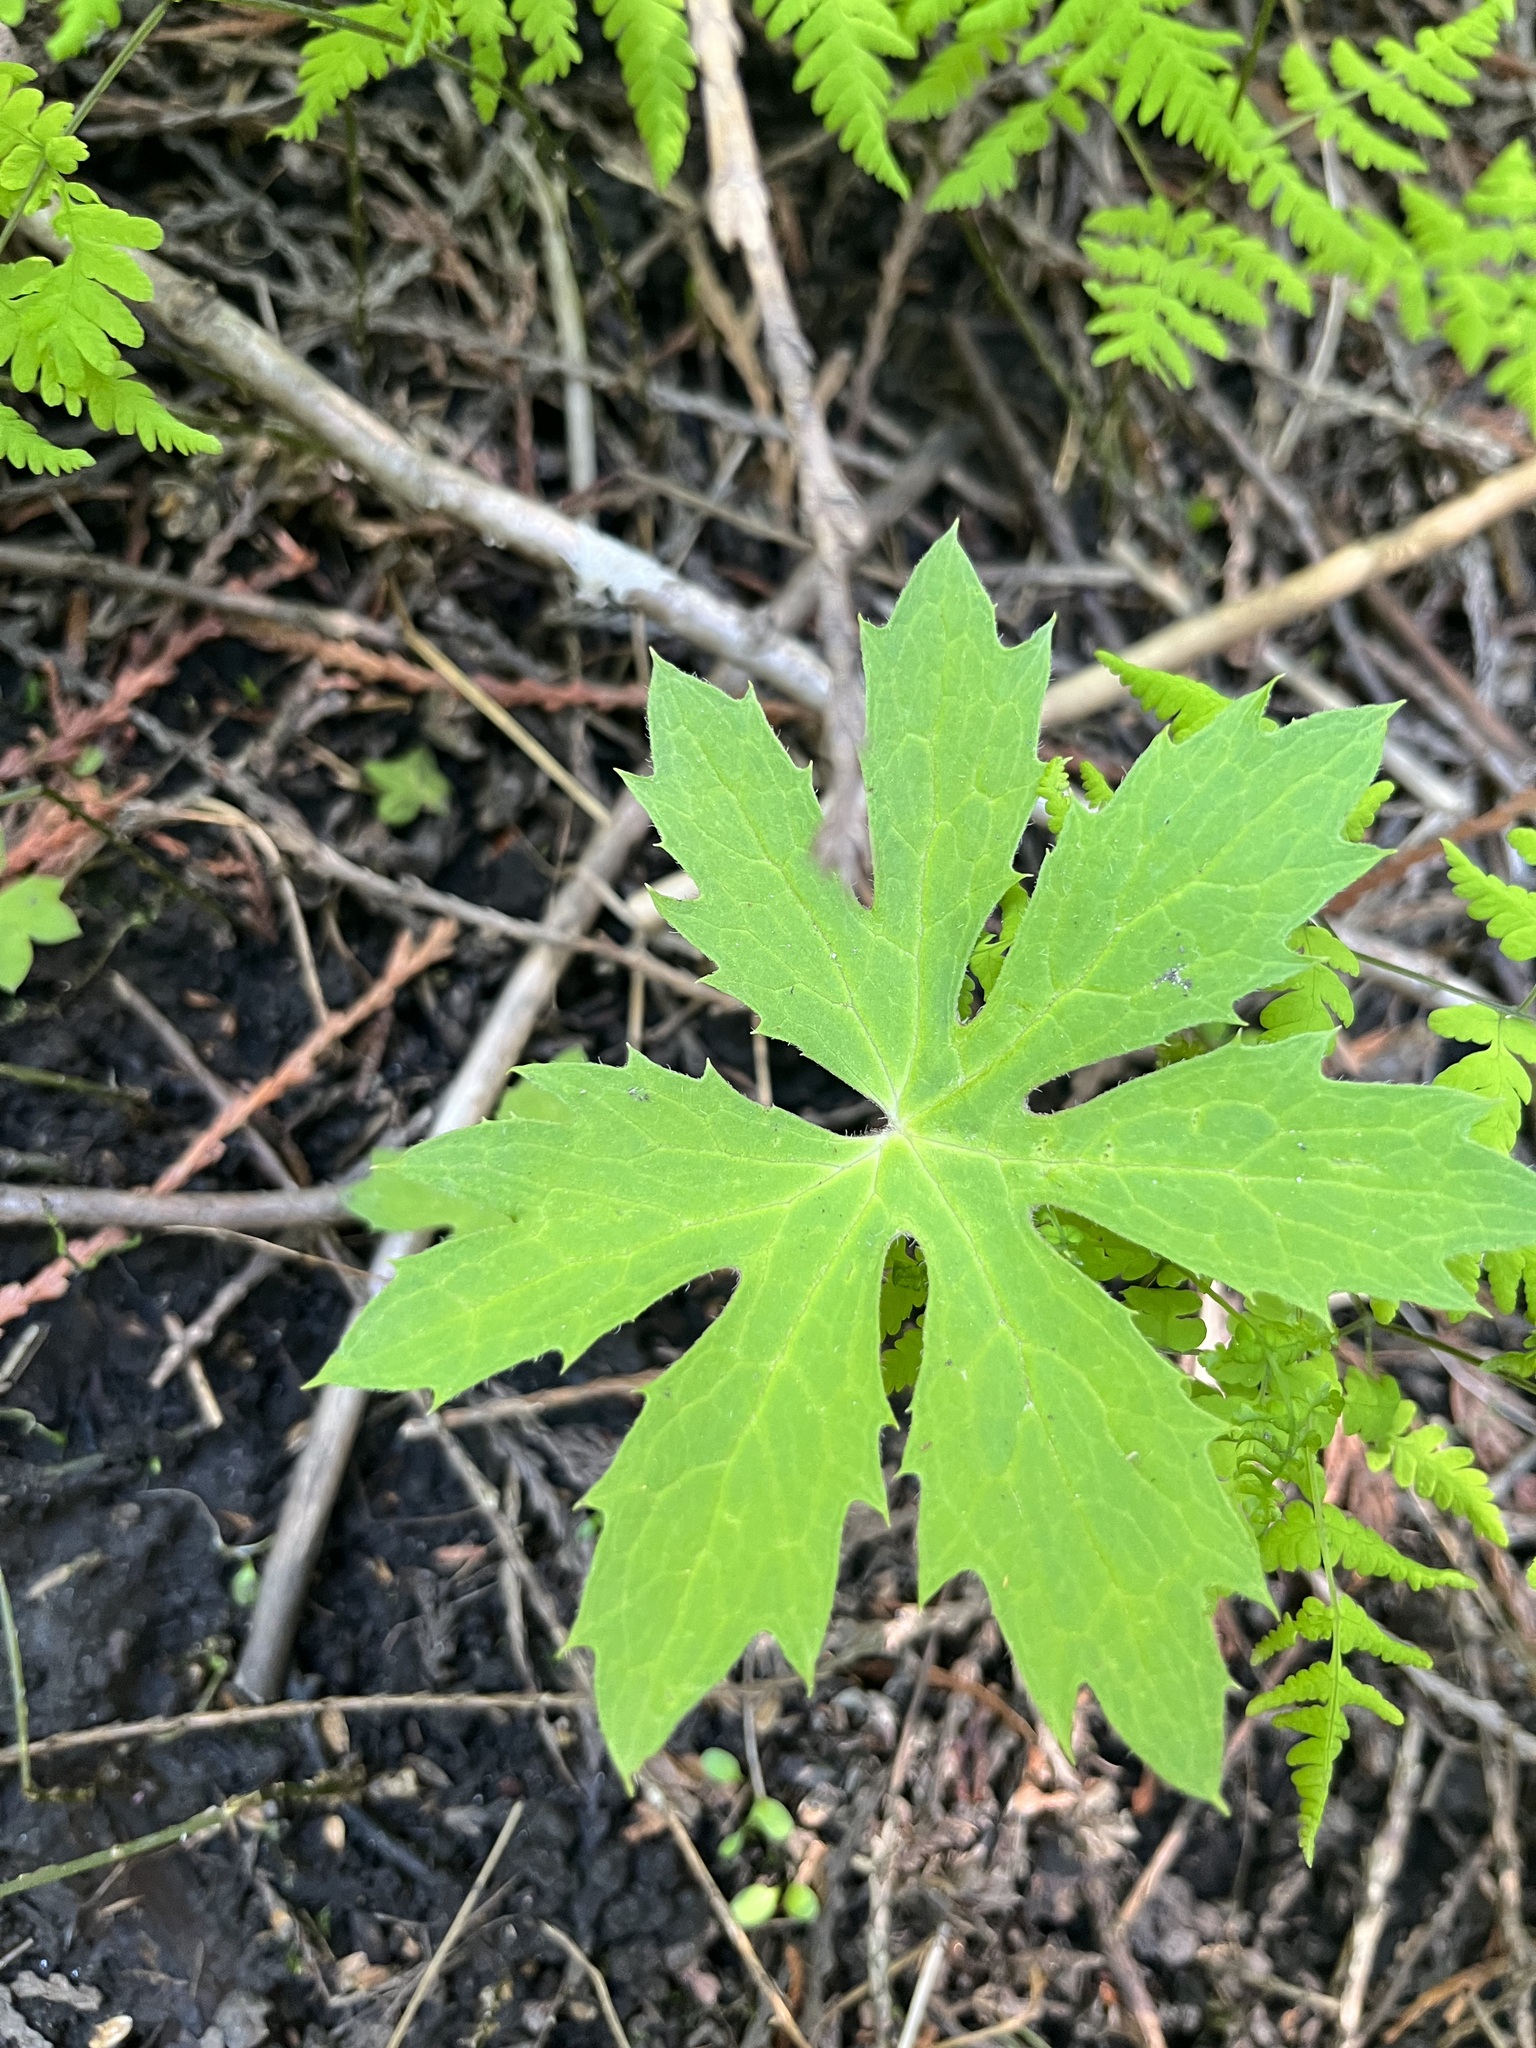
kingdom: Plantae
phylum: Tracheophyta
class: Magnoliopsida
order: Asterales
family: Asteraceae
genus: Petasites
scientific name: Petasites frigidus
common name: Arctic butterbur
